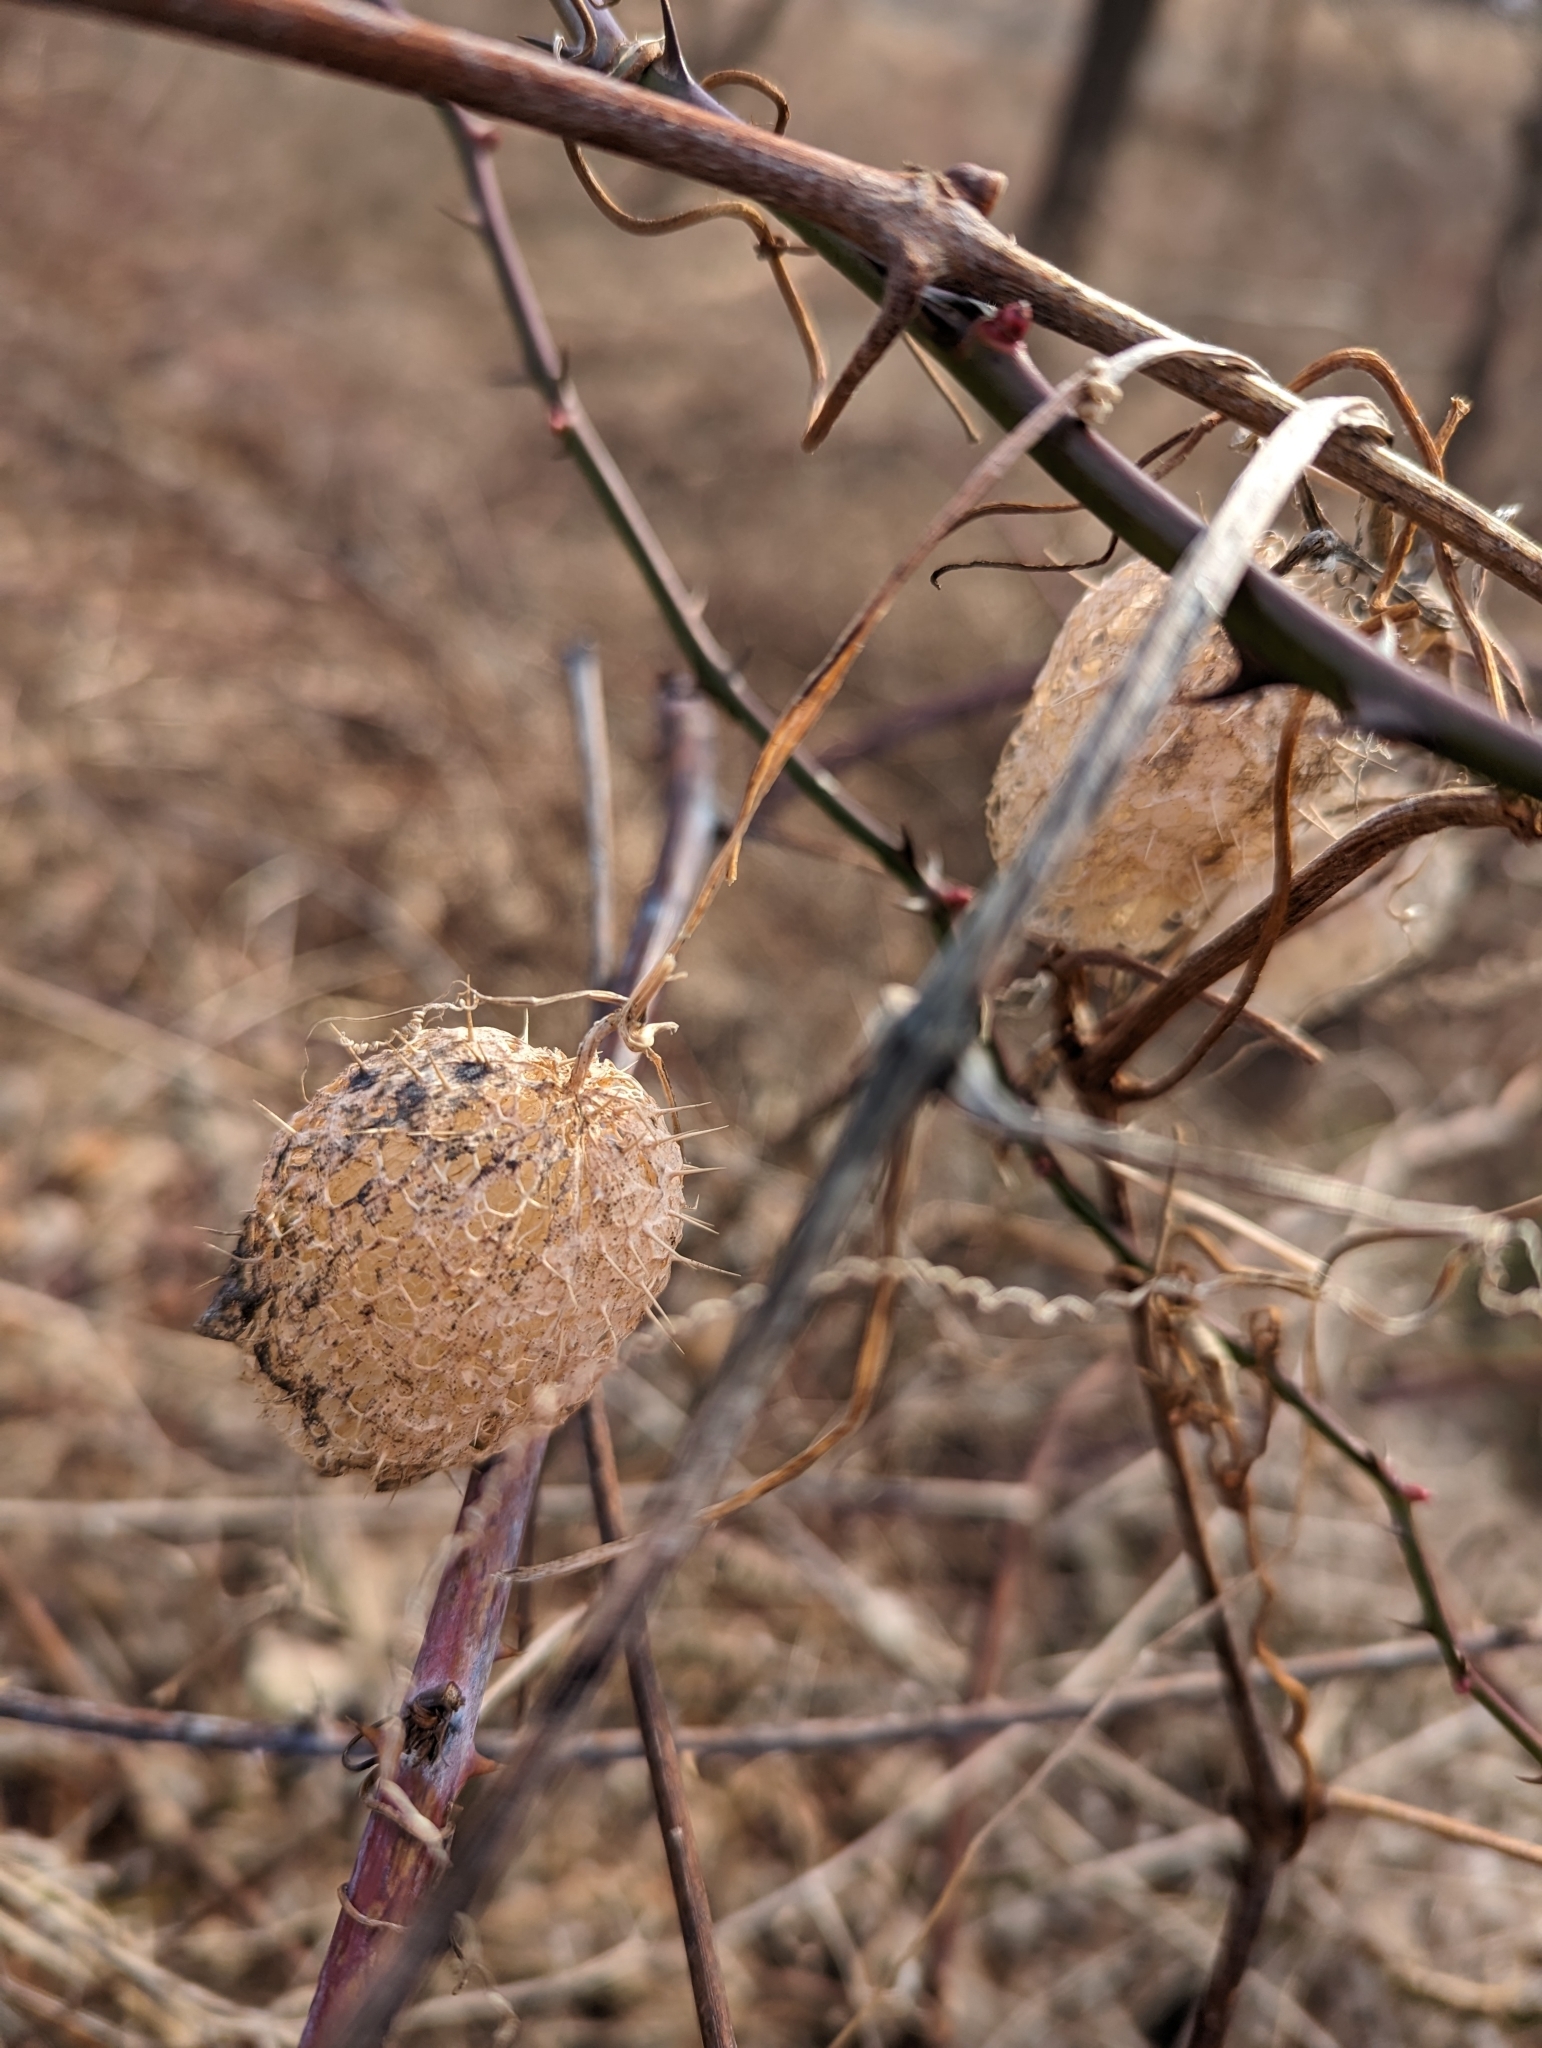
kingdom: Plantae
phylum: Tracheophyta
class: Magnoliopsida
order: Cucurbitales
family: Cucurbitaceae
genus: Echinocystis
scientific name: Echinocystis lobata
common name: Wild cucumber
